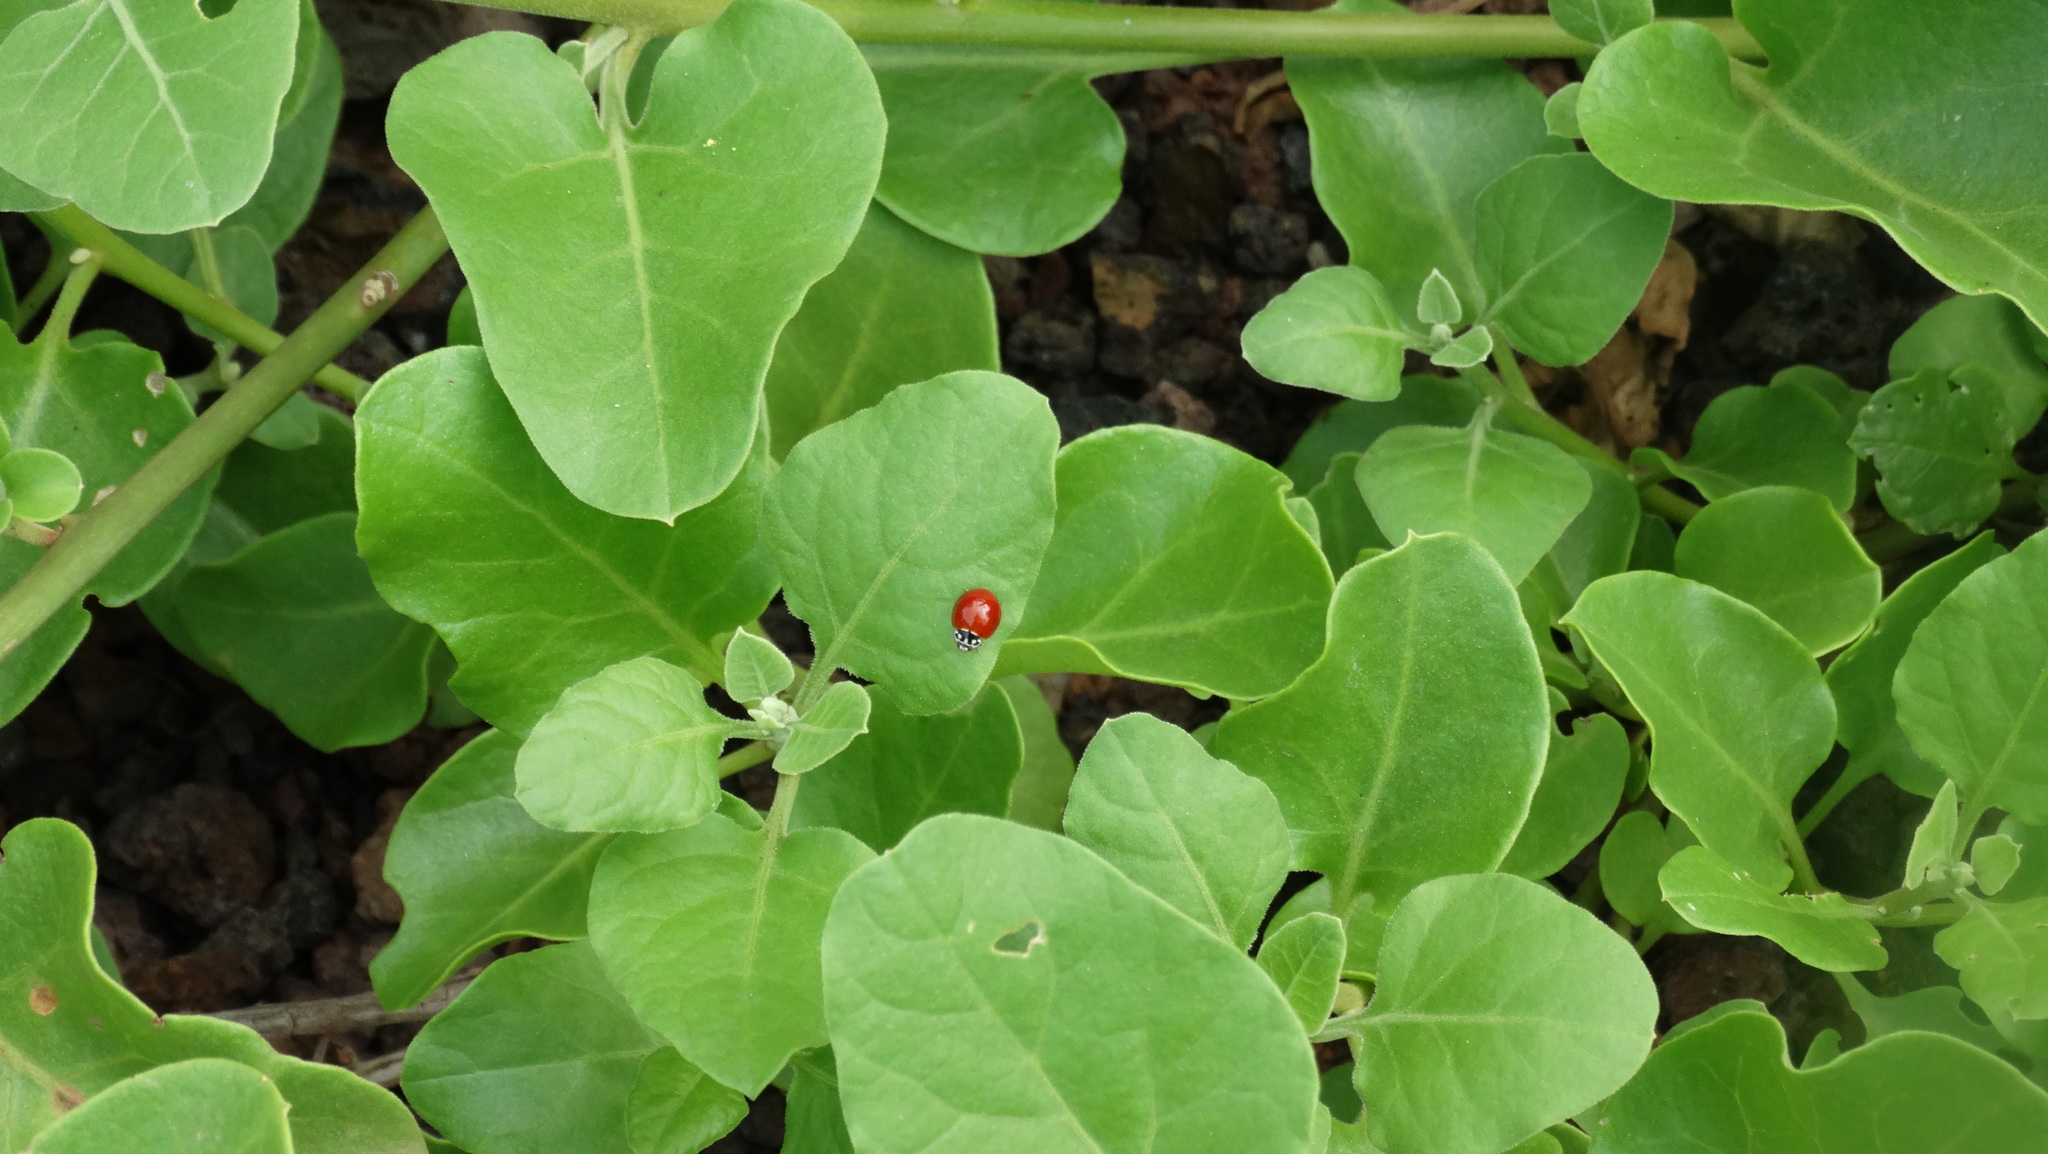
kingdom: Animalia
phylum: Arthropoda
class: Insecta
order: Coleoptera
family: Coccinellidae
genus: Cycloneda
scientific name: Cycloneda sanguinea
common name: Ladybird beetle
